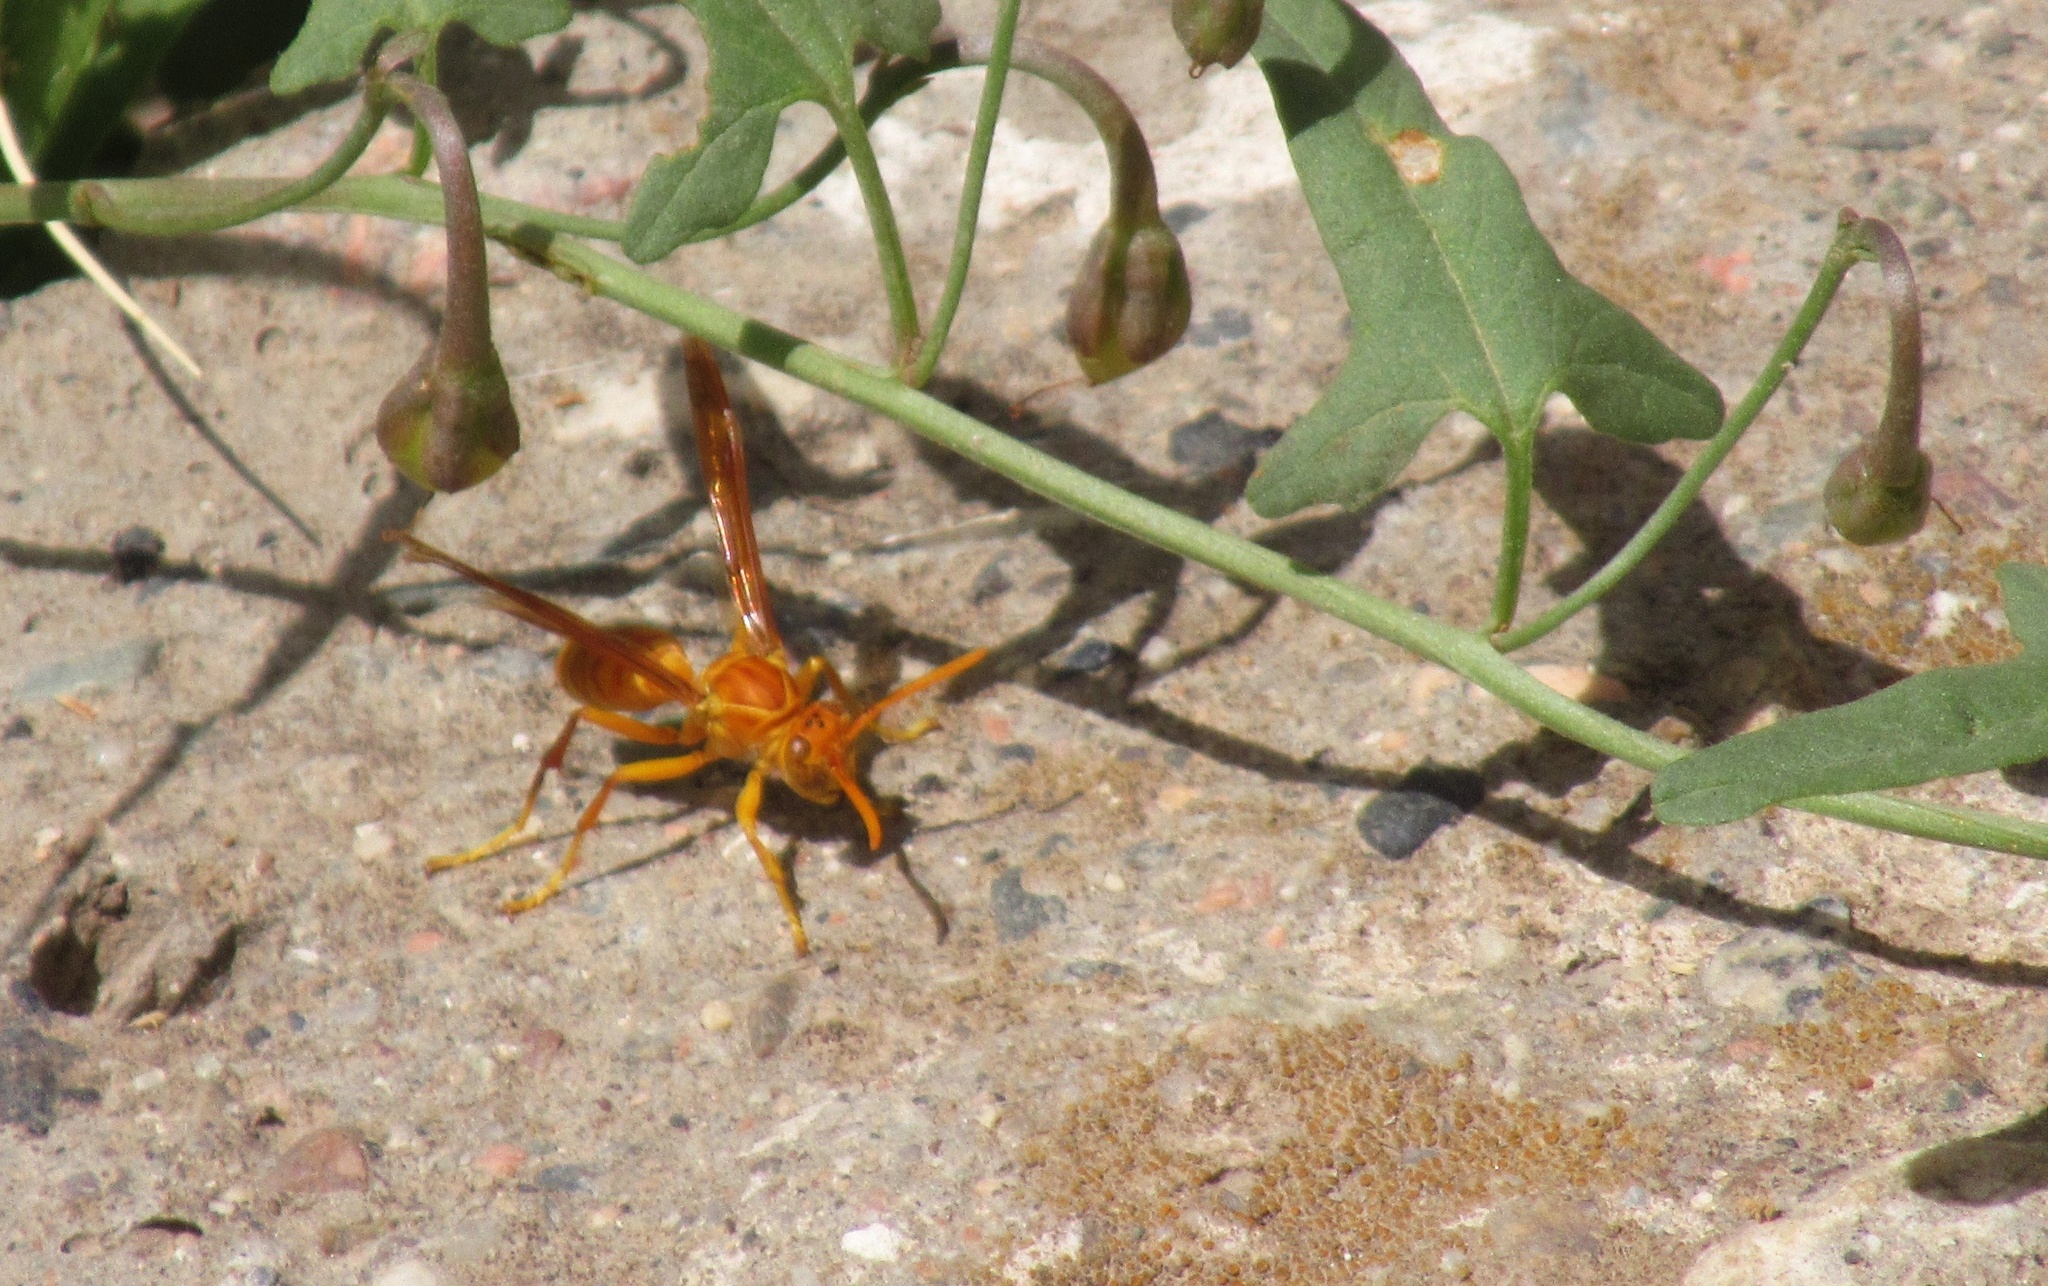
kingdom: Animalia
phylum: Arthropoda
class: Insecta
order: Hymenoptera
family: Eumenidae
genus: Polistes
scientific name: Polistes wattii
